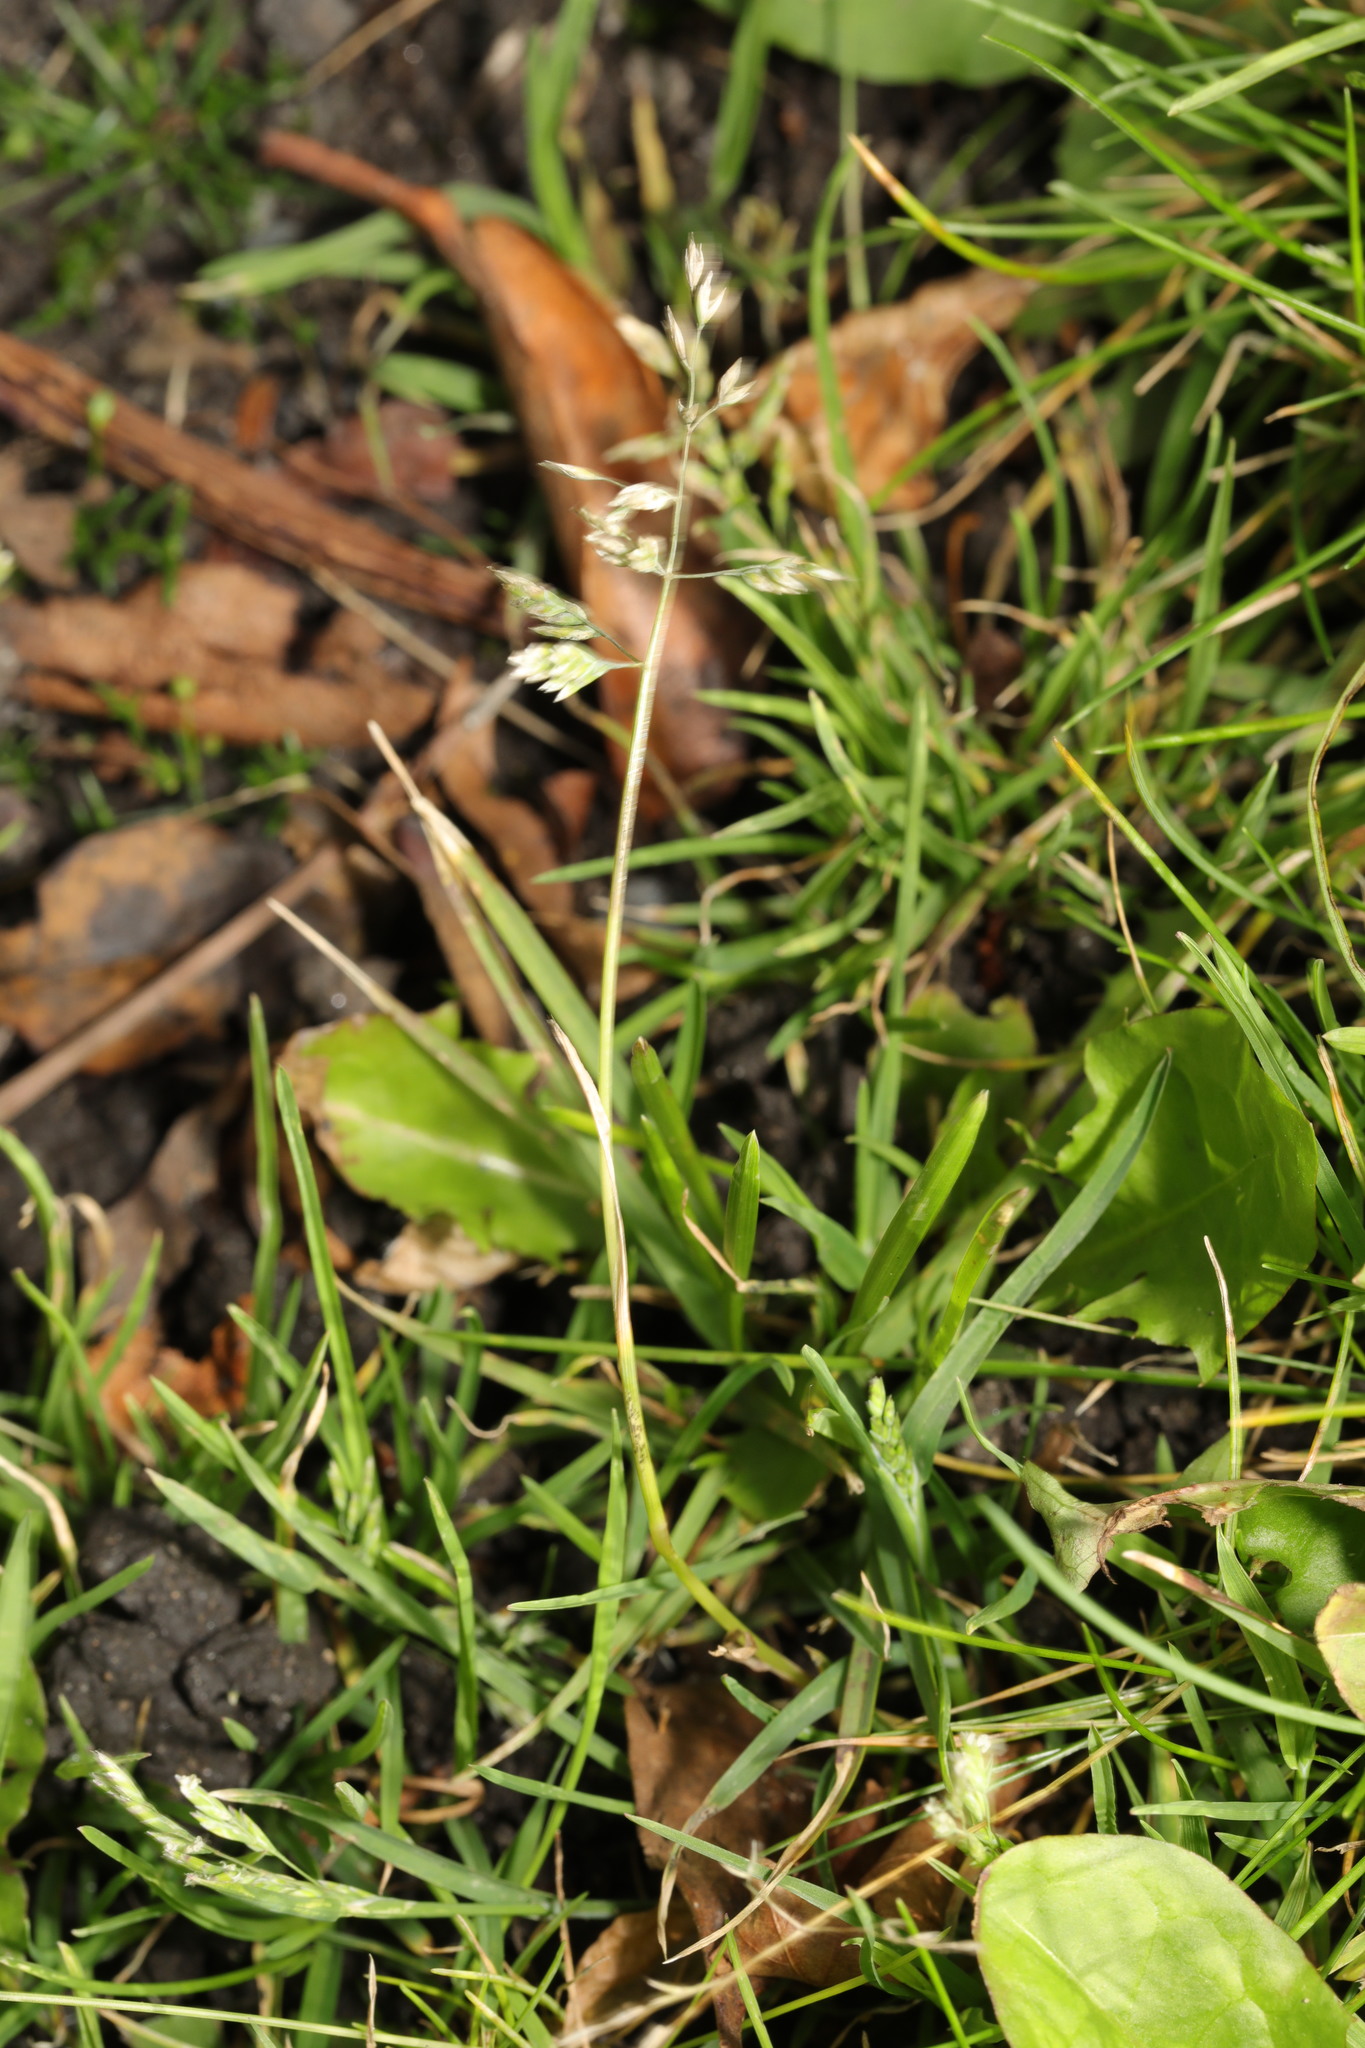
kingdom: Plantae
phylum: Tracheophyta
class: Liliopsida
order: Poales
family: Poaceae
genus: Poa
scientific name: Poa annua
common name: Annual bluegrass
